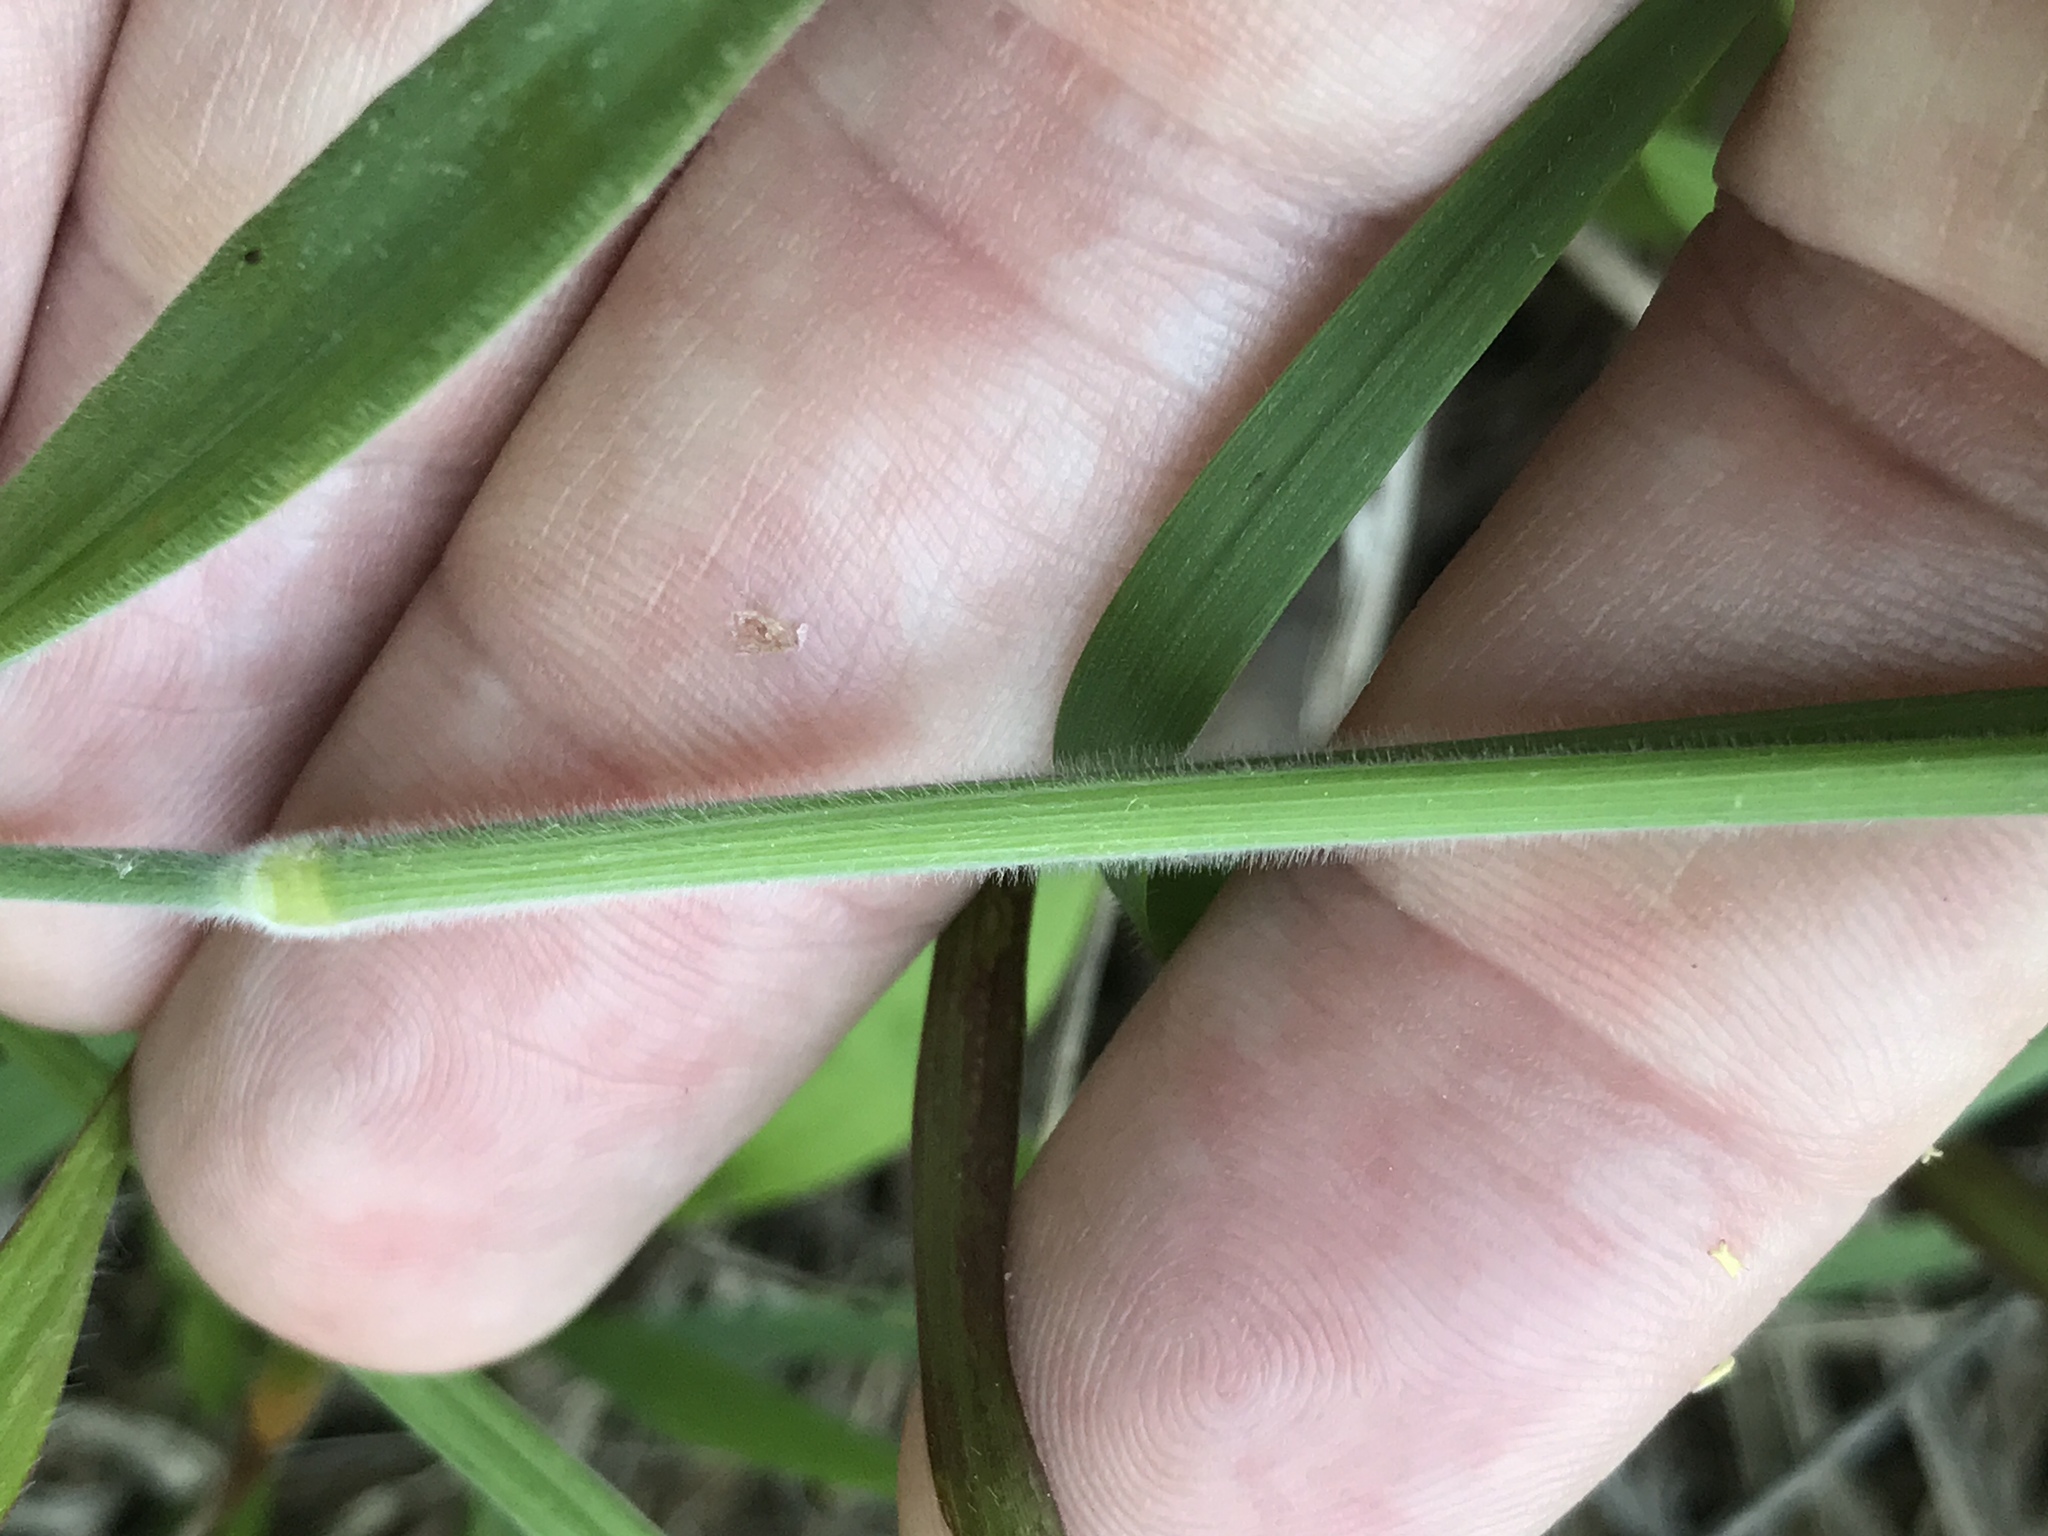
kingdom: Plantae
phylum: Tracheophyta
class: Liliopsida
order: Poales
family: Poaceae
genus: Holcus
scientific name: Holcus lanatus
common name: Yorkshire-fog
